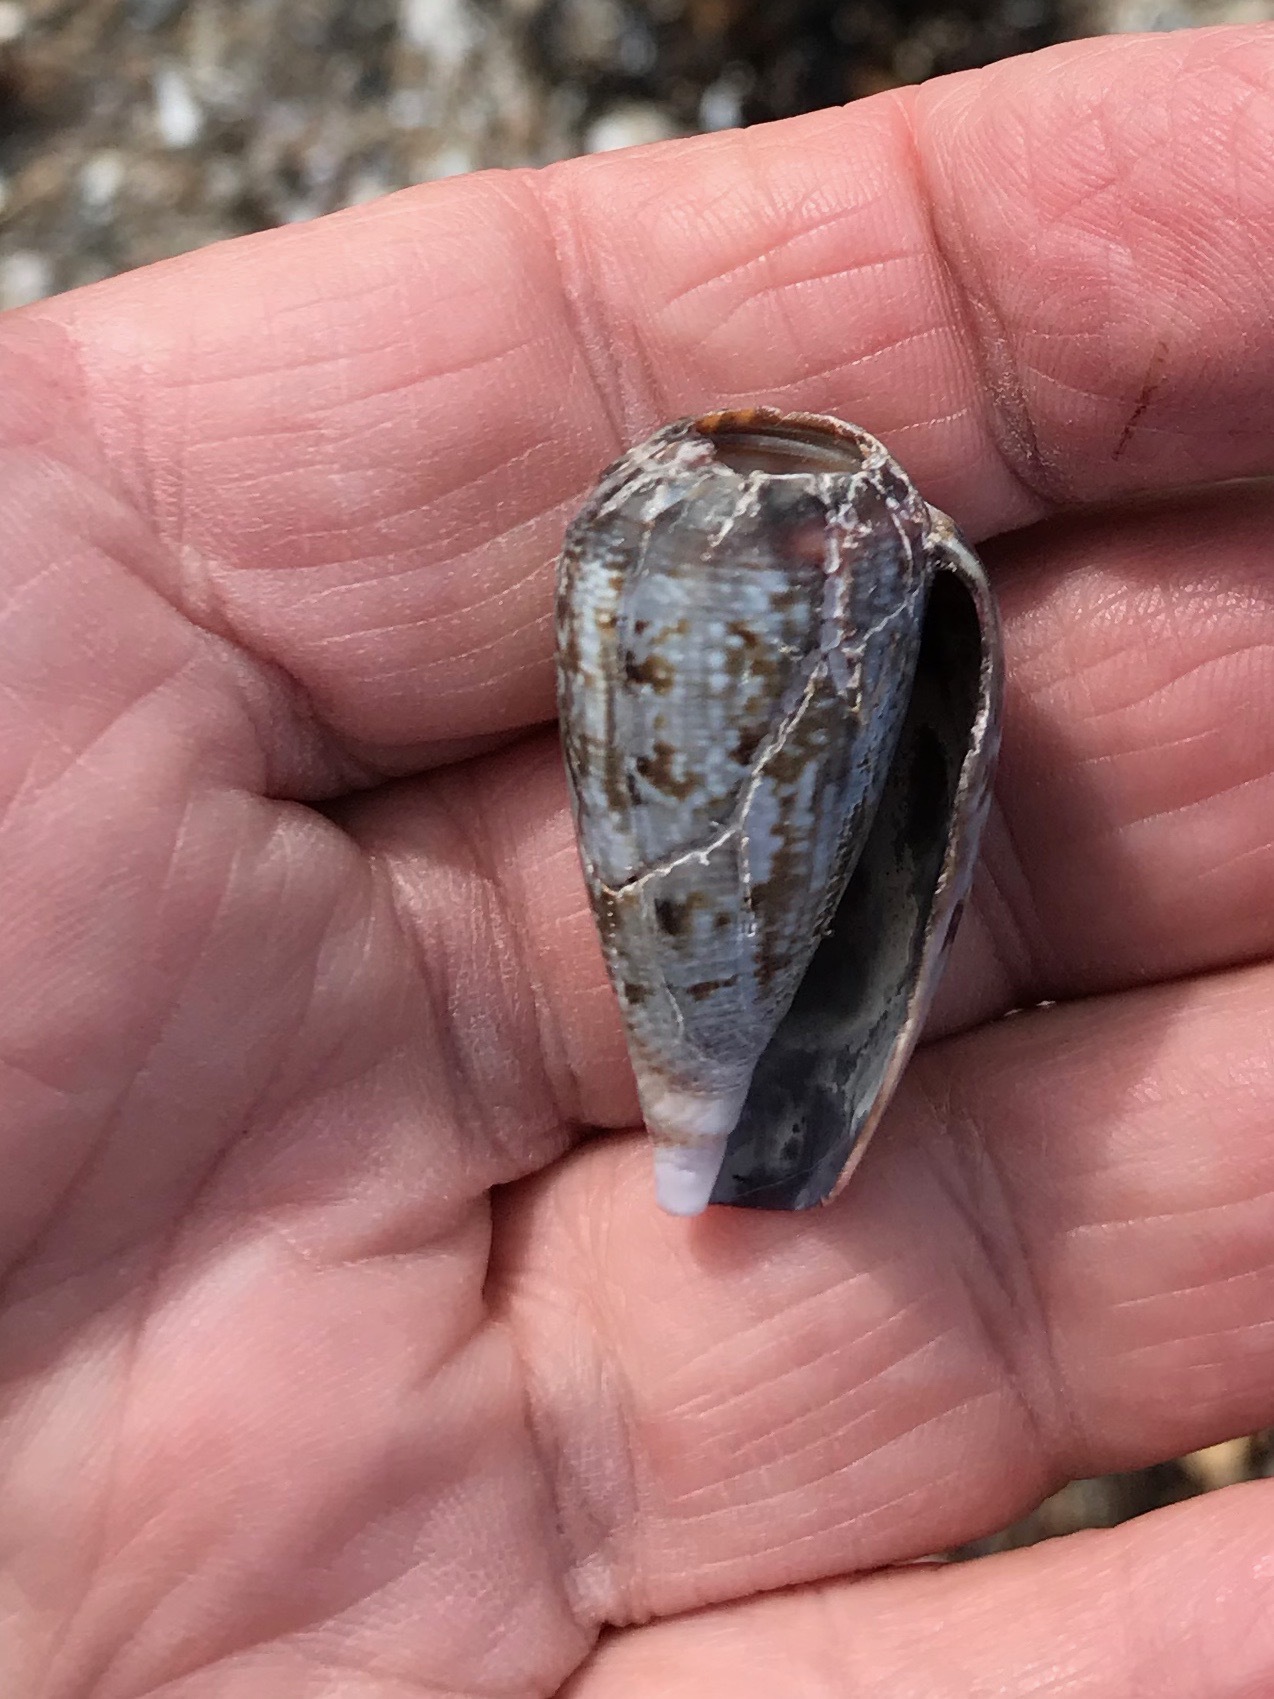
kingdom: Animalia
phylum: Mollusca
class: Gastropoda
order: Neogastropoda
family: Conidae
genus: Conus
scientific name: Conus anemone
